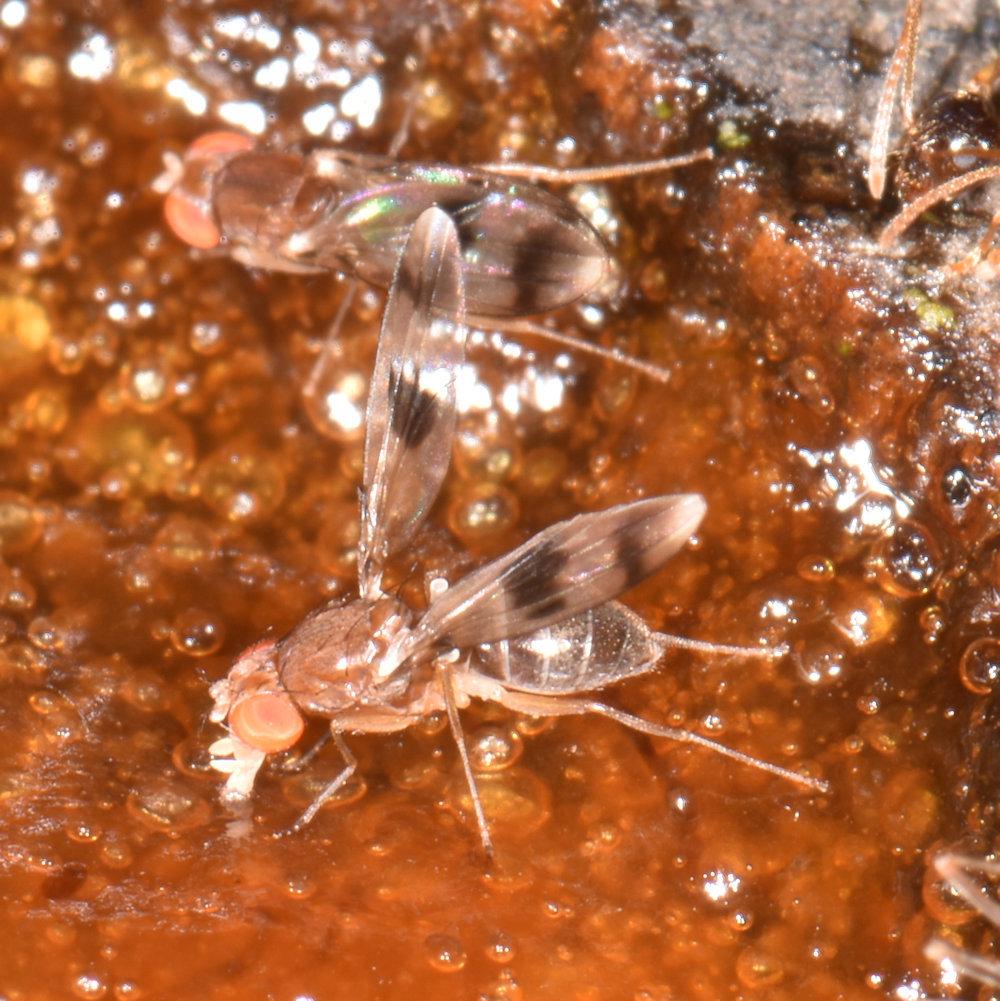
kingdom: Animalia
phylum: Arthropoda
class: Insecta
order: Diptera
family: Drosophilidae
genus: Chymomyza
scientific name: Chymomyza amoena
